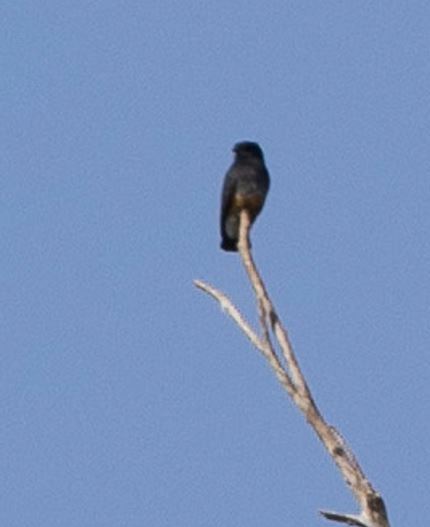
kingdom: Animalia
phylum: Chordata
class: Aves
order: Piciformes
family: Bucconidae
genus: Chelidoptera
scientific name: Chelidoptera tenebrosa
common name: Swallow-winged puffbird
